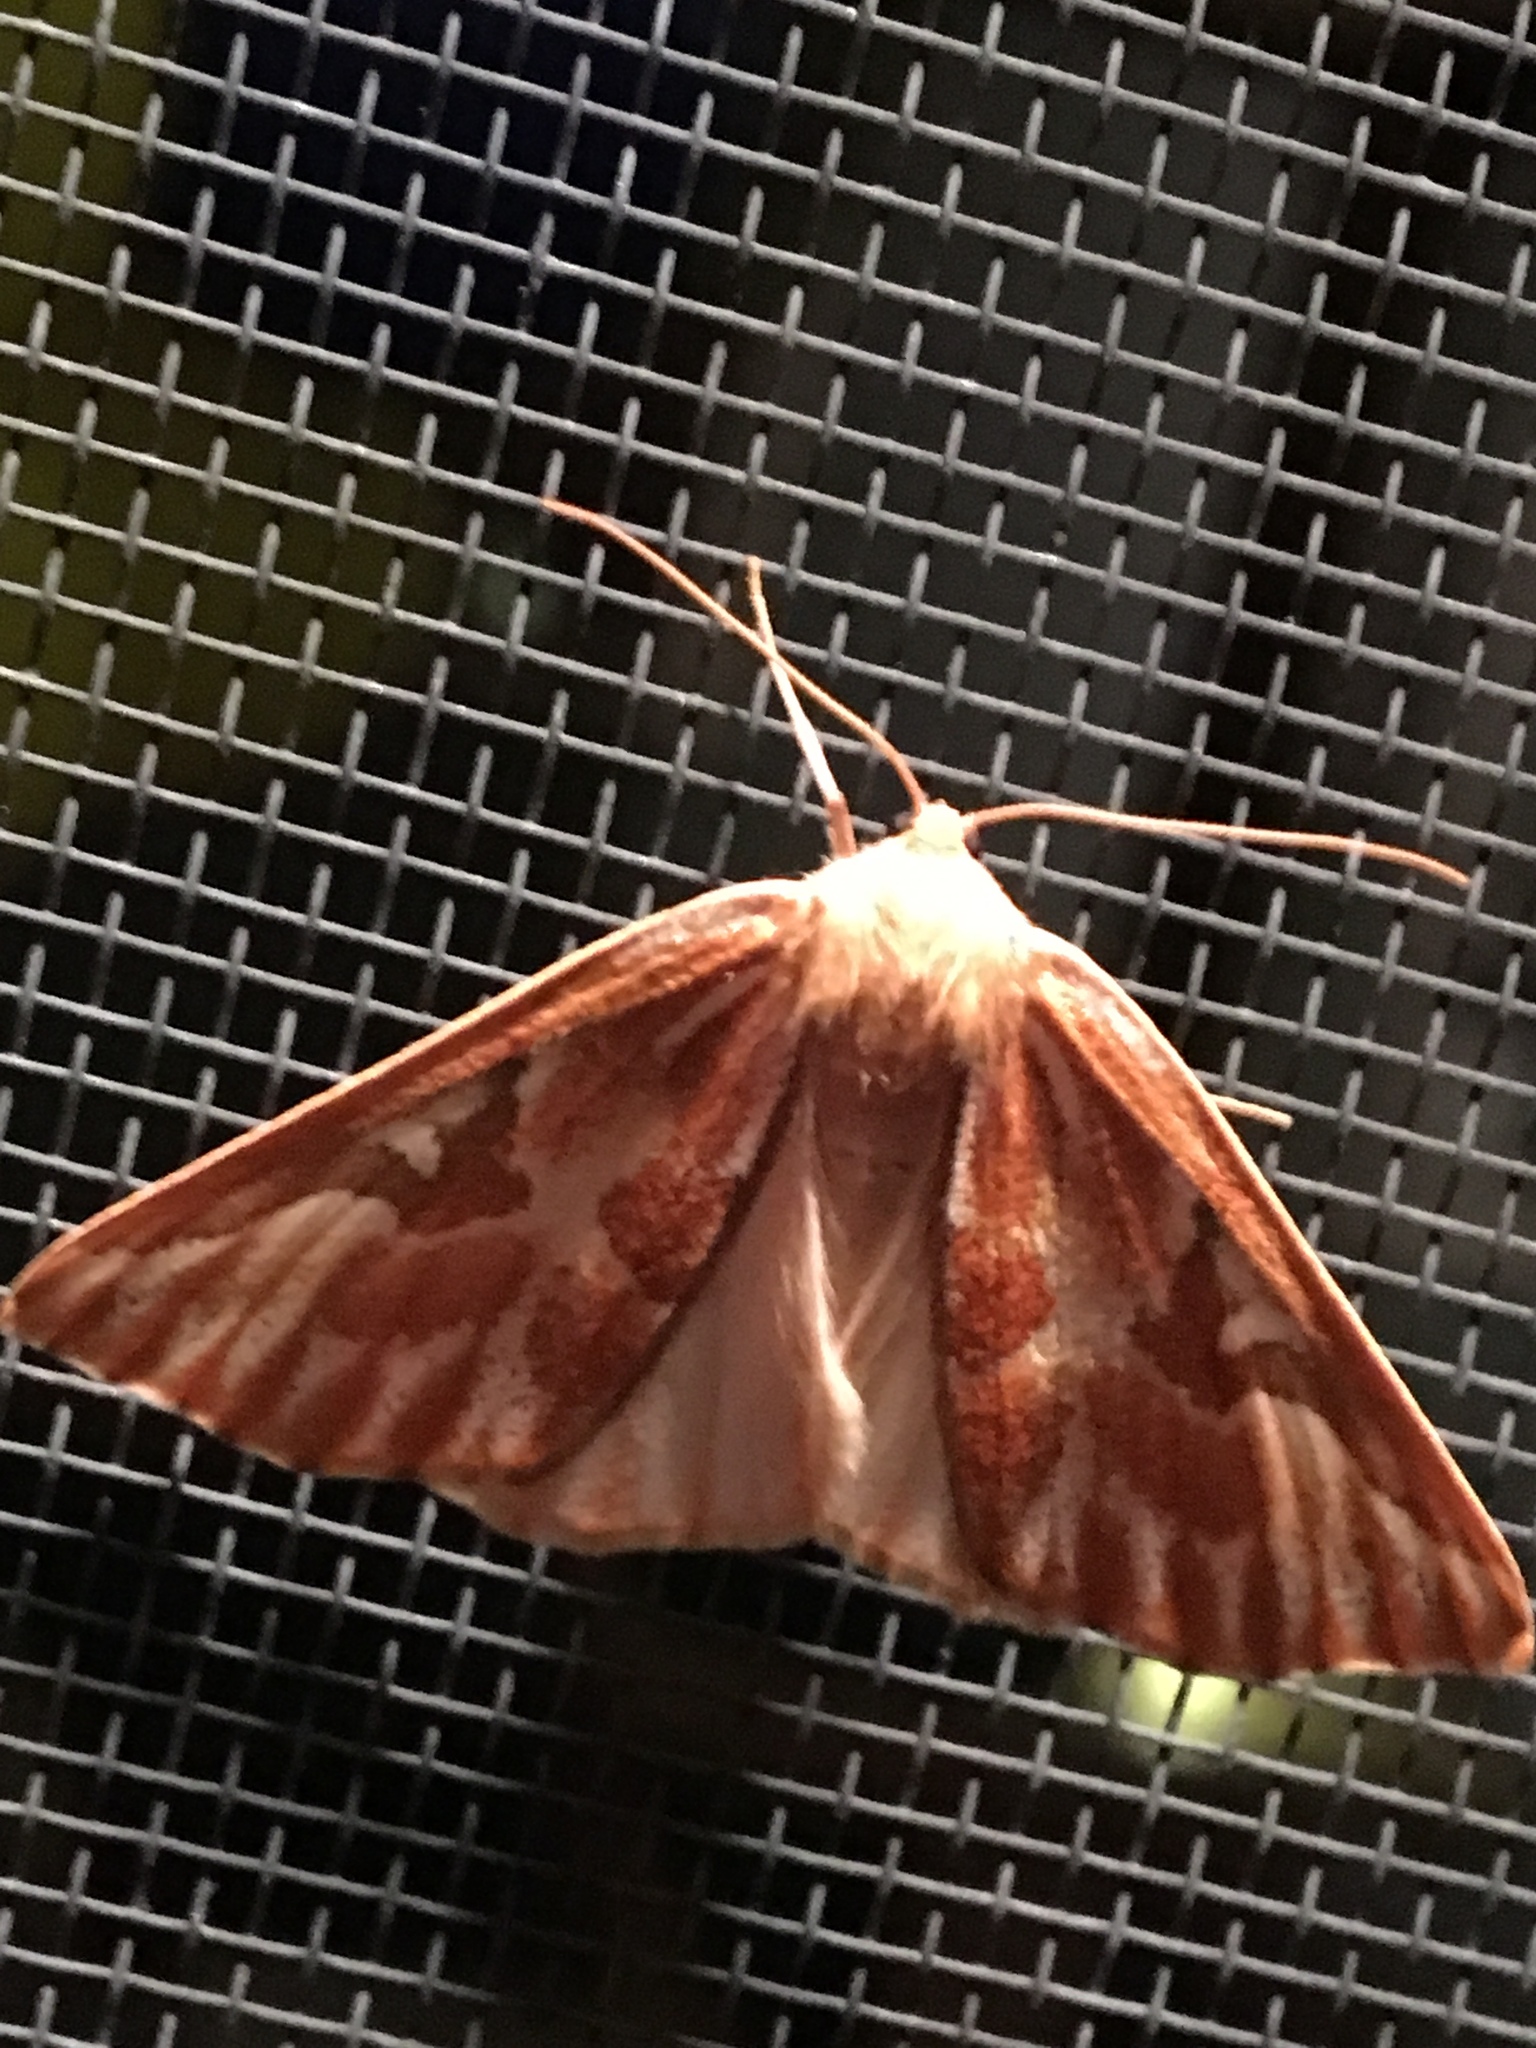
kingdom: Animalia
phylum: Arthropoda
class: Insecta
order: Lepidoptera
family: Geometridae
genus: Caripeta
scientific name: Caripeta piniata
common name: Northern pine looper moth
